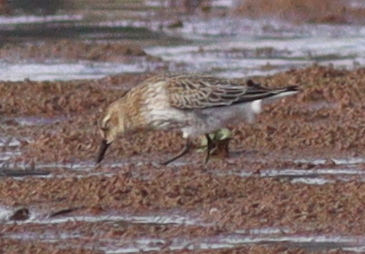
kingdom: Animalia
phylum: Chordata
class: Aves
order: Charadriiformes
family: Scolopacidae
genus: Calidris
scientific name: Calidris alpina
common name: Dunlin
